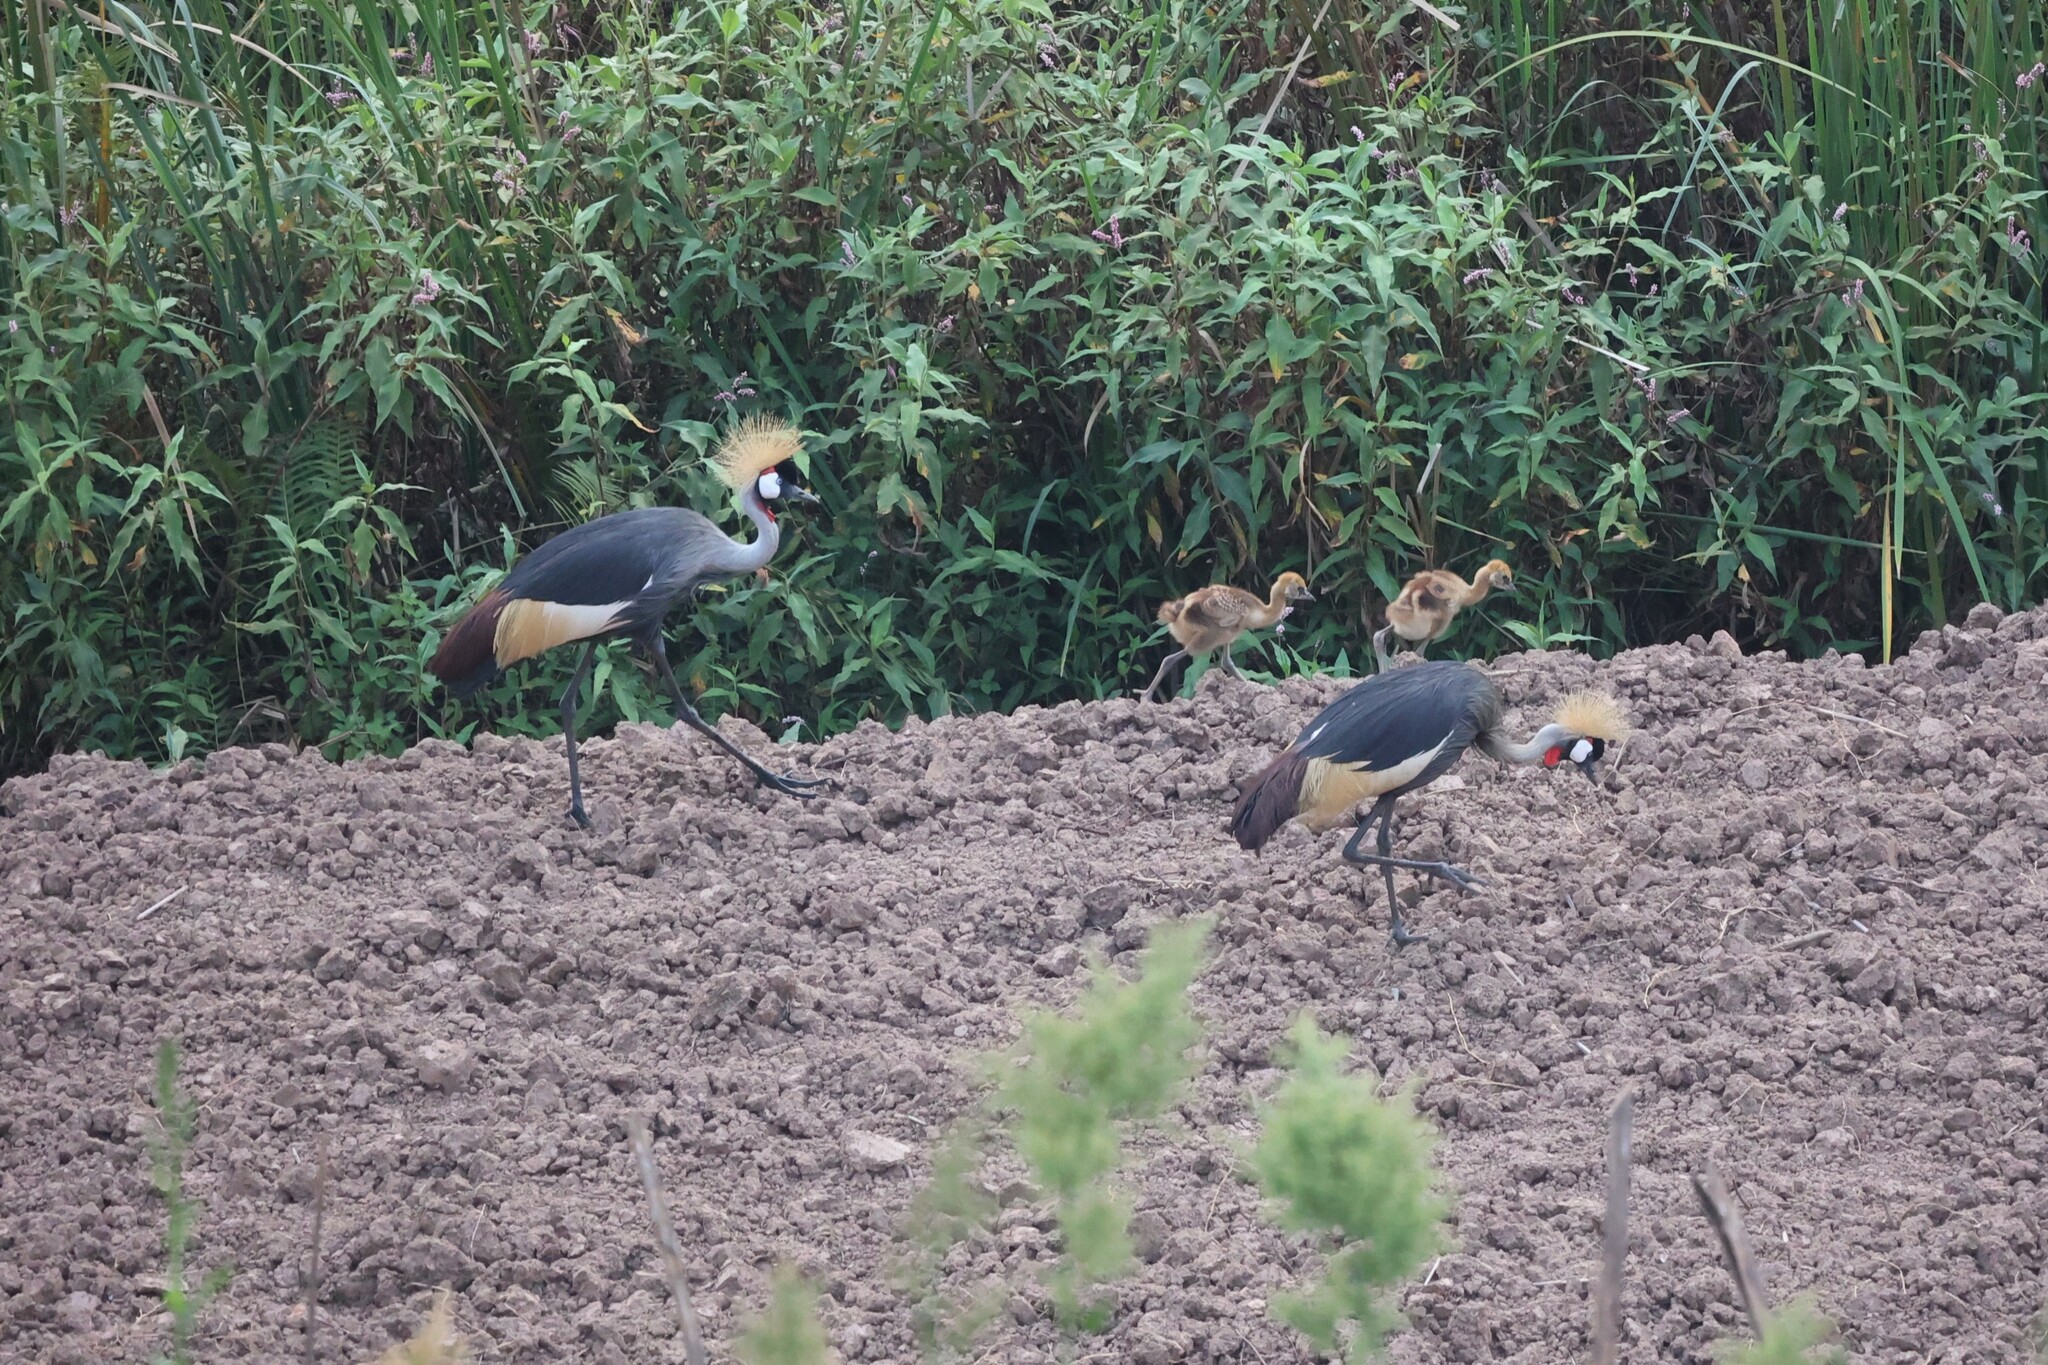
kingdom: Animalia
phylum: Chordata
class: Aves
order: Gruiformes
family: Gruidae
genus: Balearica
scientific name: Balearica regulorum
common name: Grey crowned crane
